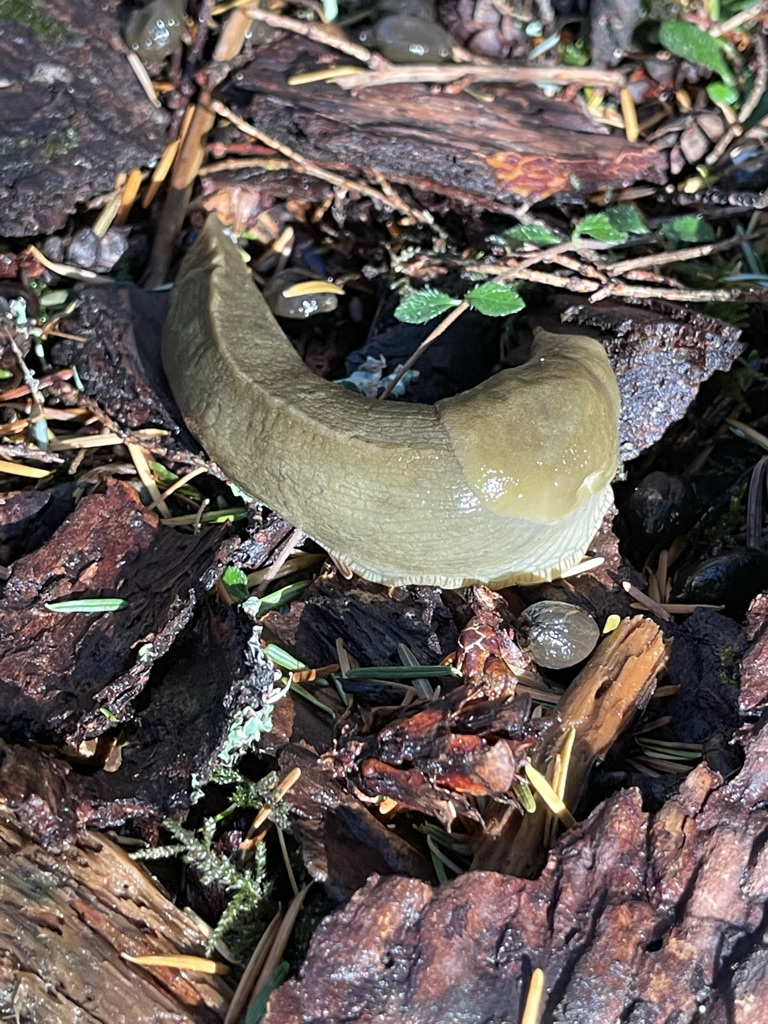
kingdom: Animalia
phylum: Mollusca
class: Gastropoda
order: Stylommatophora
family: Ariolimacidae
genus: Ariolimax
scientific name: Ariolimax columbianus
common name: Pacific banana slug
